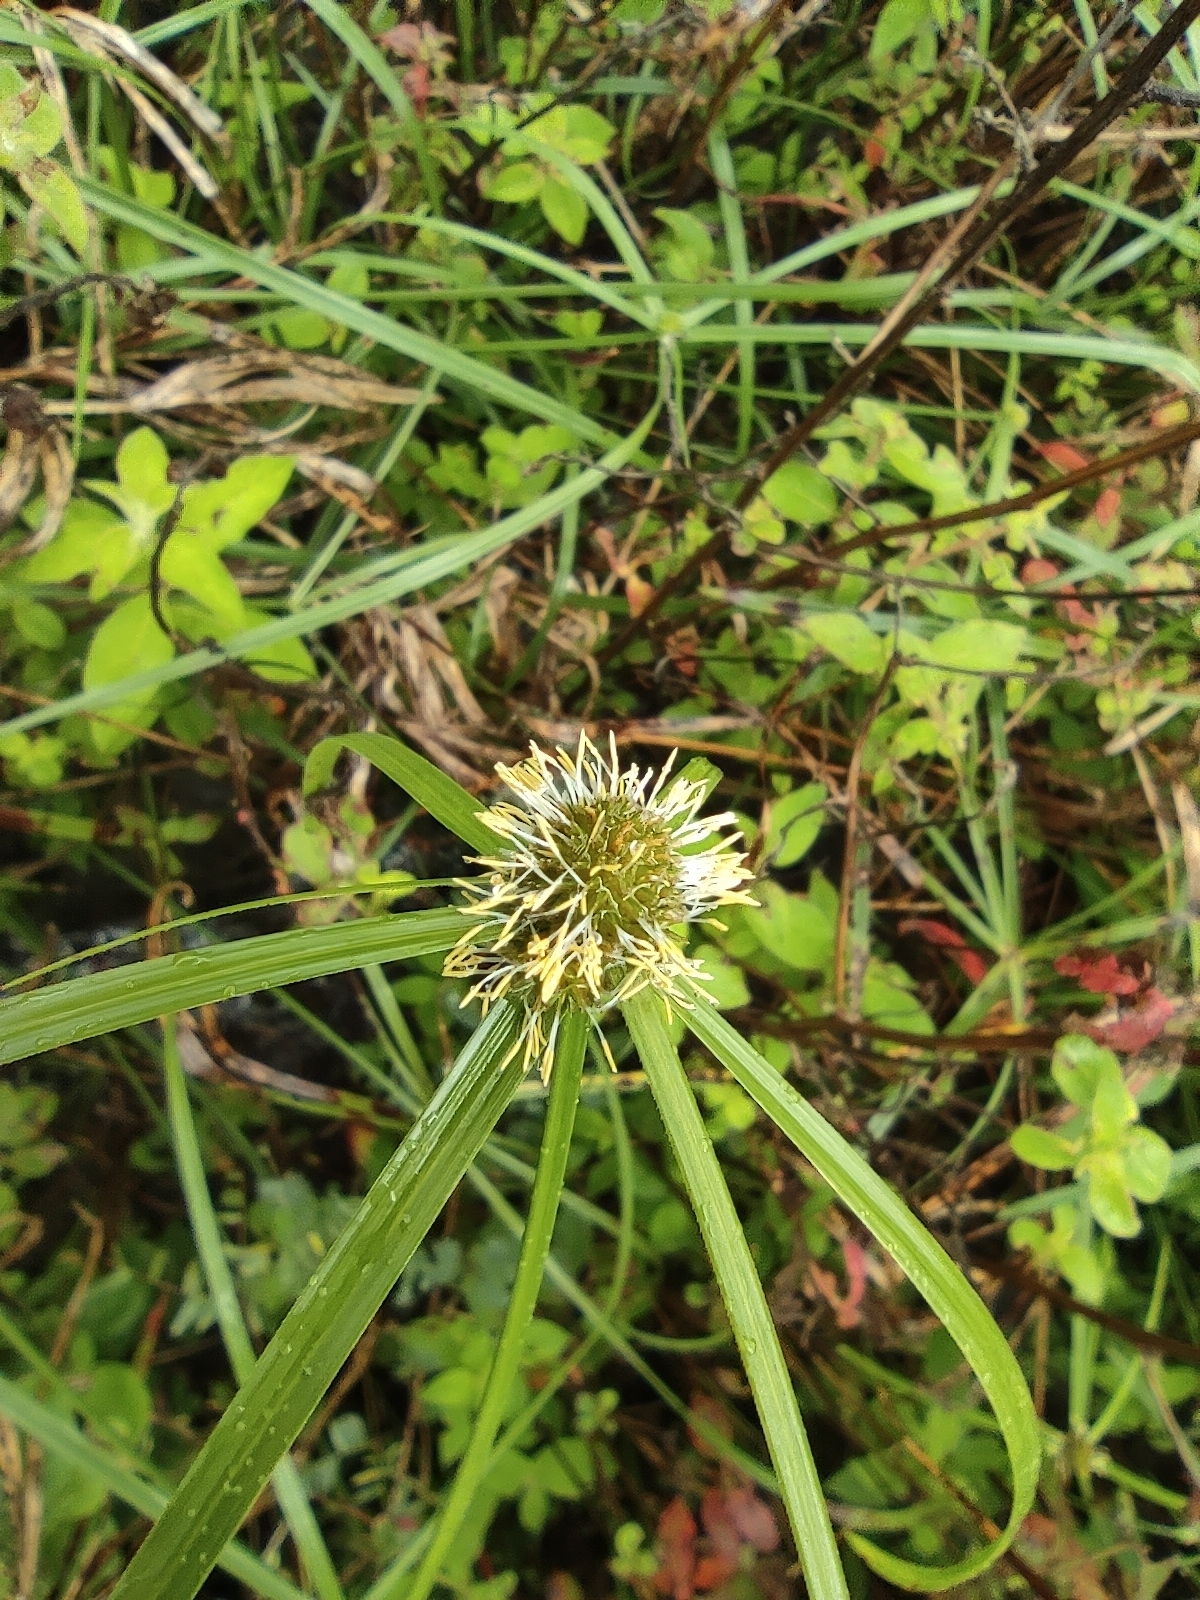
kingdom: Plantae
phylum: Tracheophyta
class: Liliopsida
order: Poales
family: Cyperaceae
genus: Cyperus
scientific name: Cyperus aromaticus
